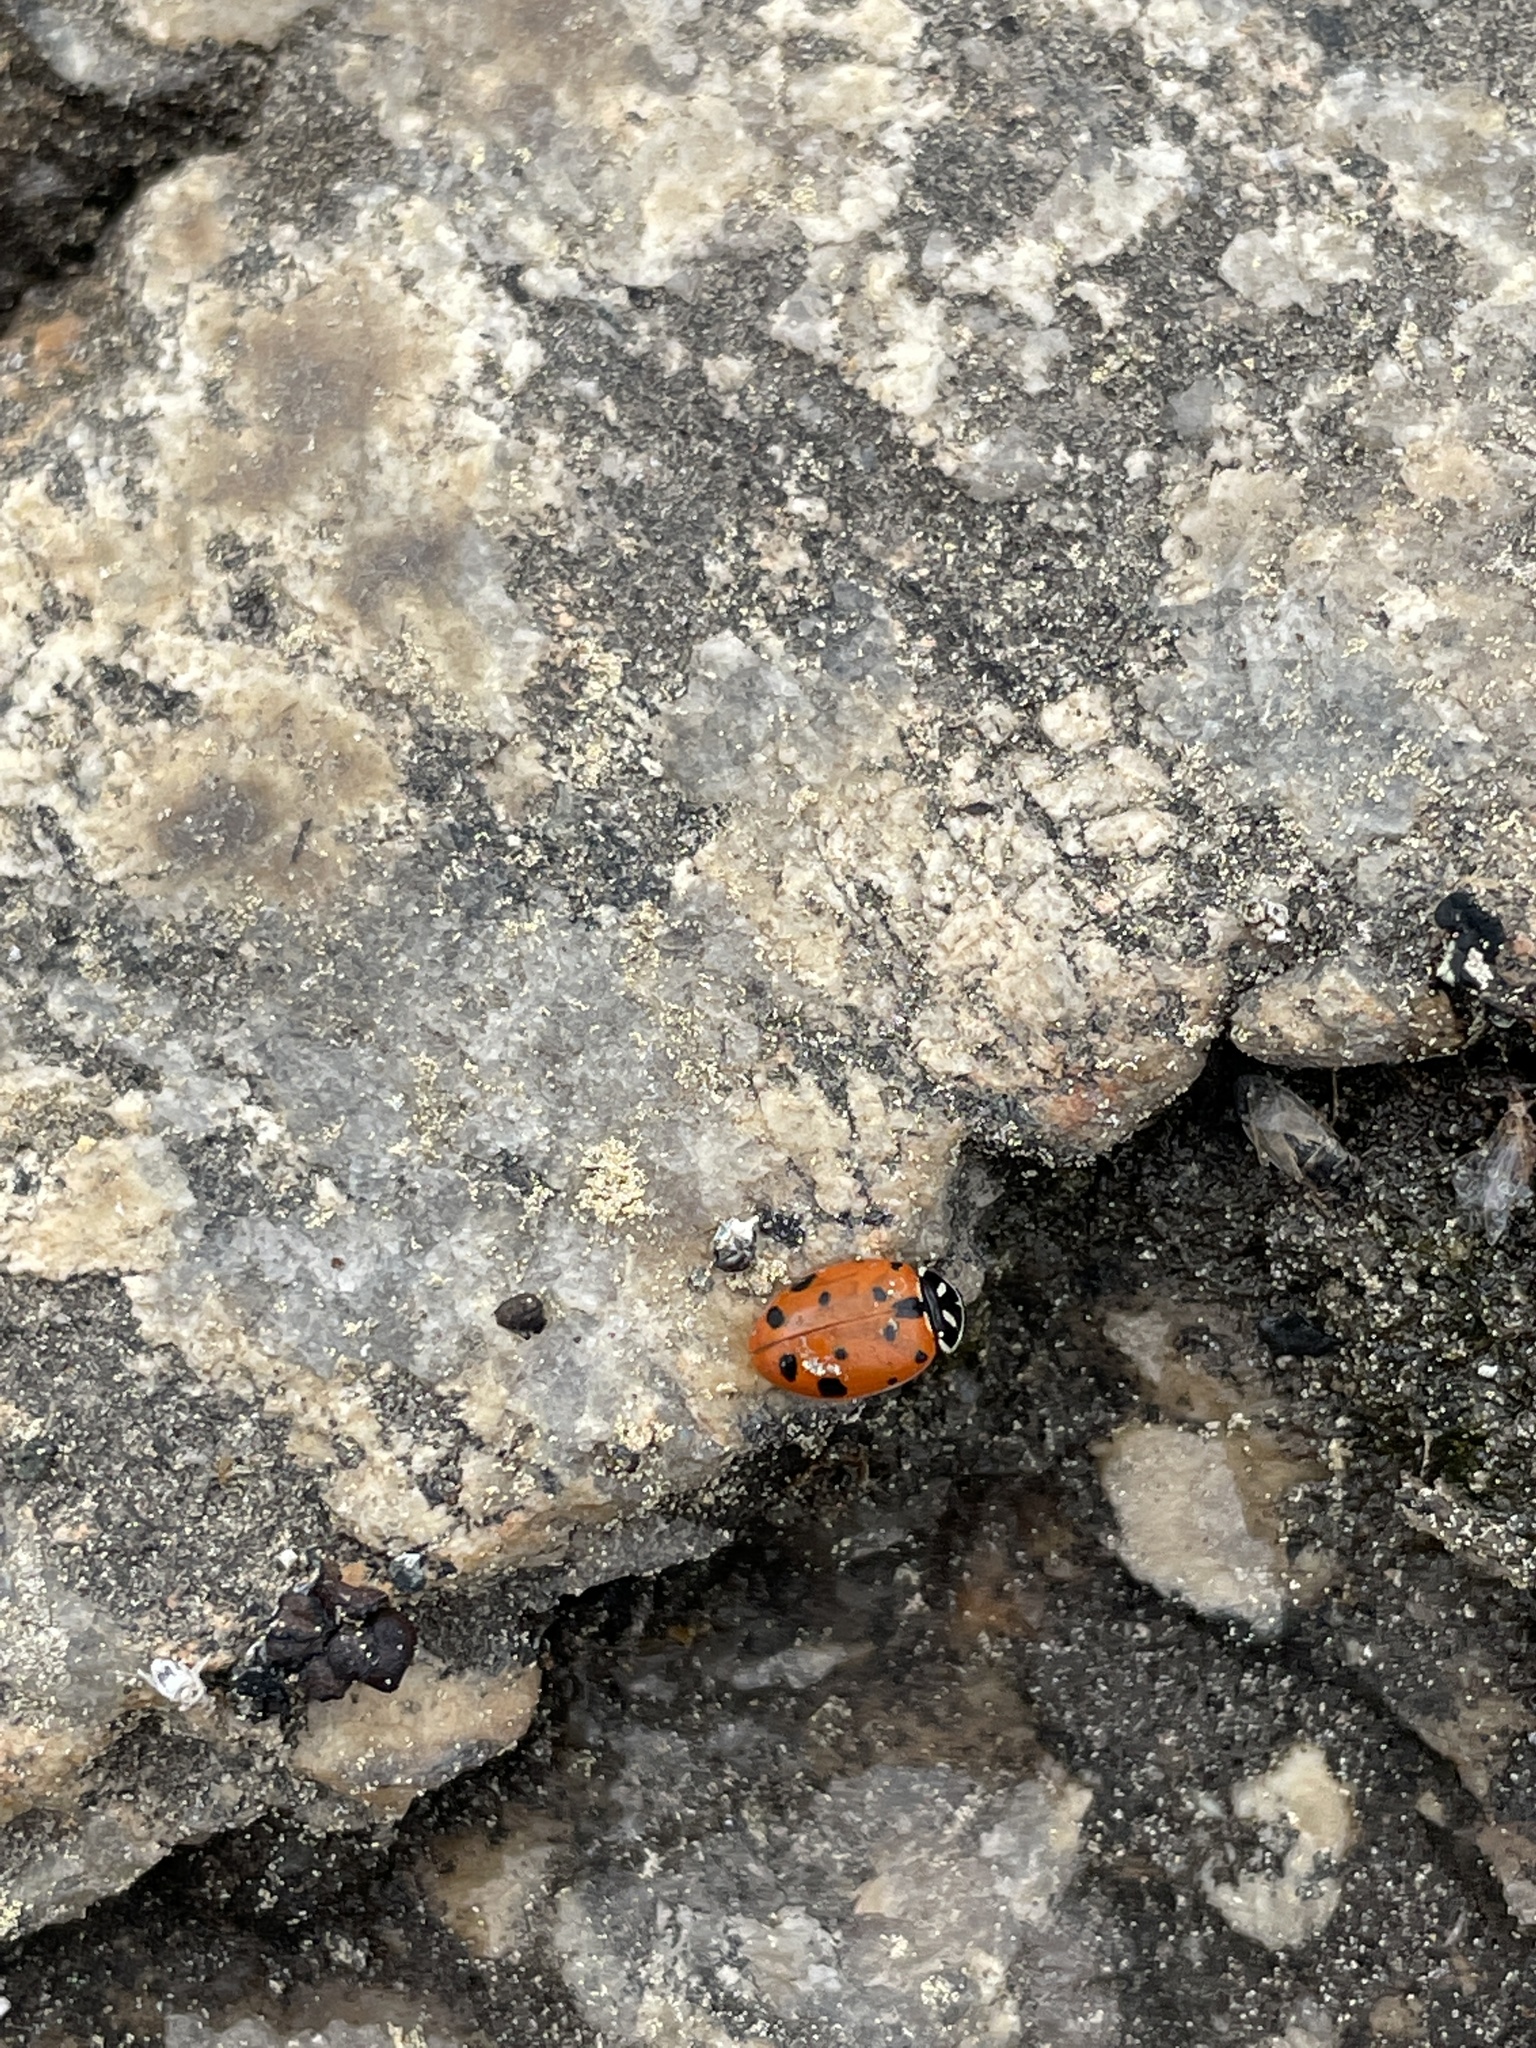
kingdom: Animalia
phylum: Arthropoda
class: Insecta
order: Coleoptera
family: Coccinellidae
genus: Hippodamia
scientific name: Hippodamia convergens
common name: Convergent lady beetle
